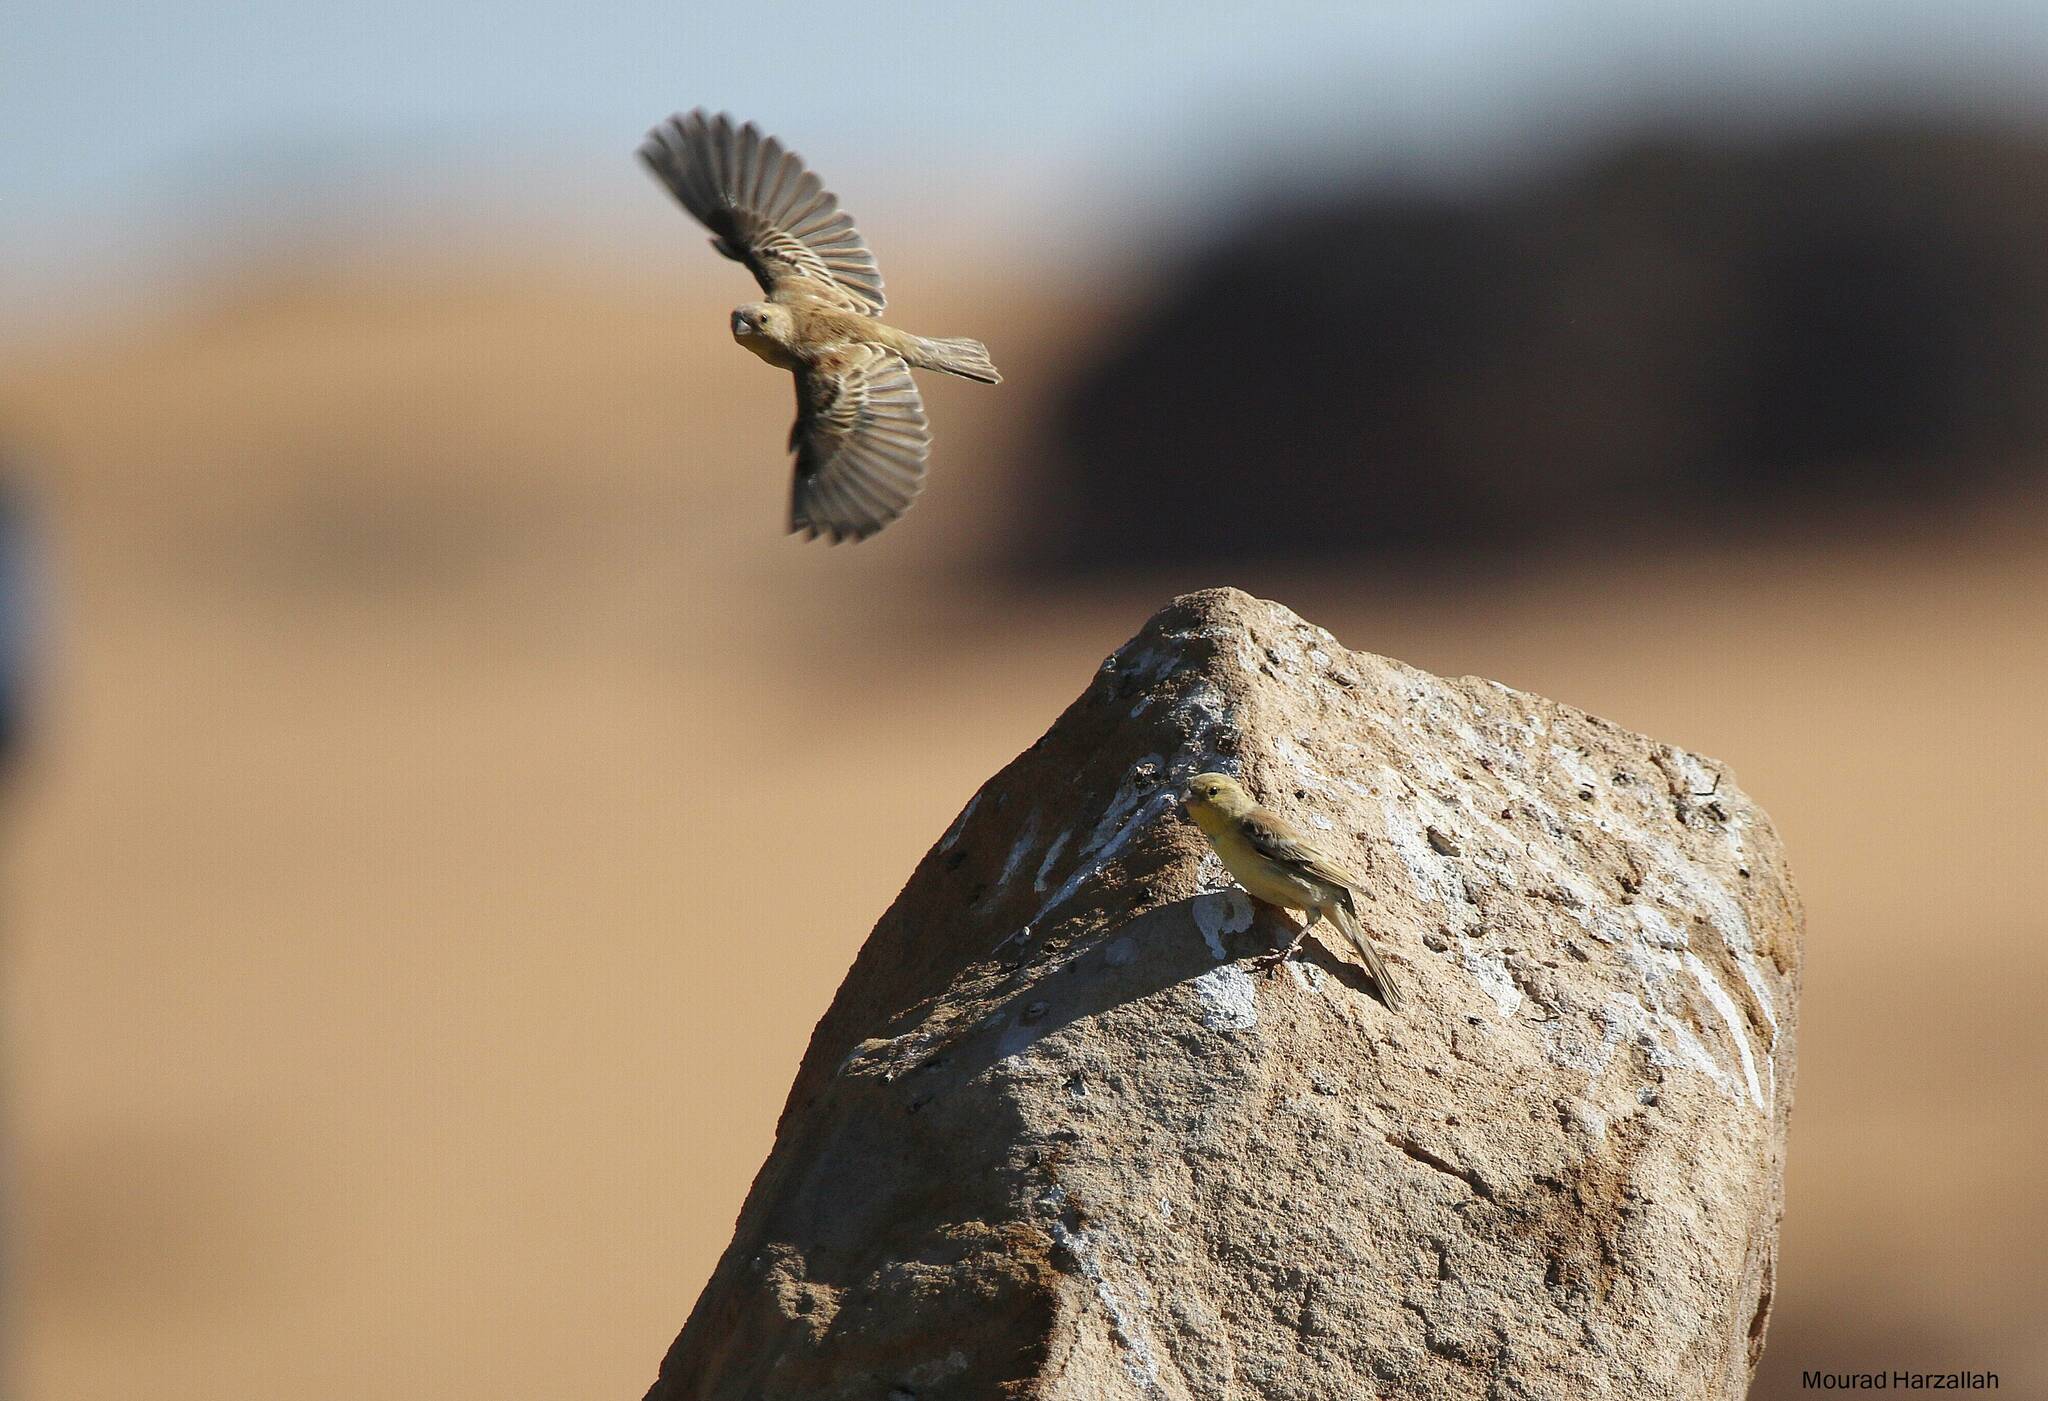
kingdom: Animalia
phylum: Chordata
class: Aves
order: Passeriformes
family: Passeridae
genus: Passer
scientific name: Passer luteus
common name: Sudan golden sparrow
